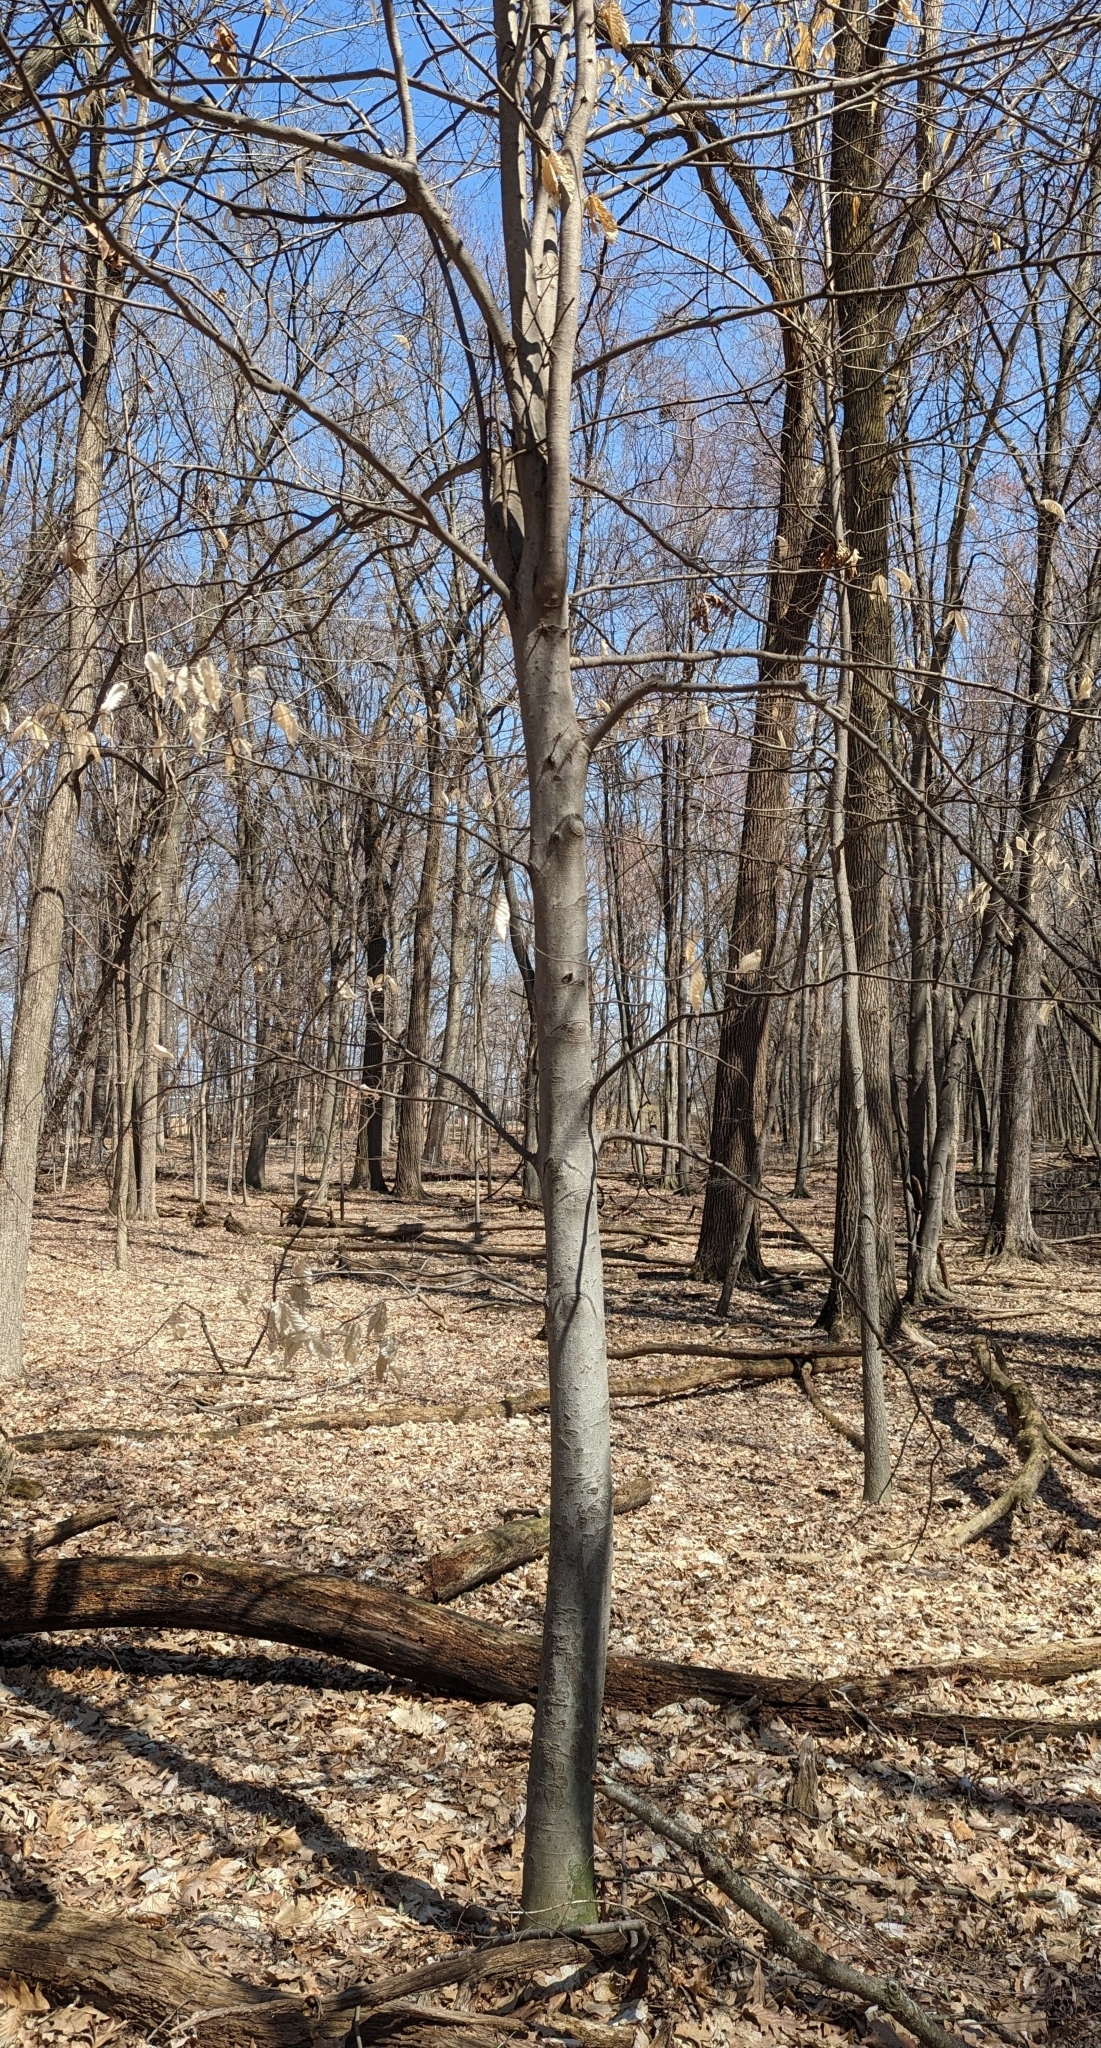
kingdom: Plantae
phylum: Tracheophyta
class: Magnoliopsida
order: Fagales
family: Fagaceae
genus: Fagus
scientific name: Fagus grandifolia
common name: American beech
